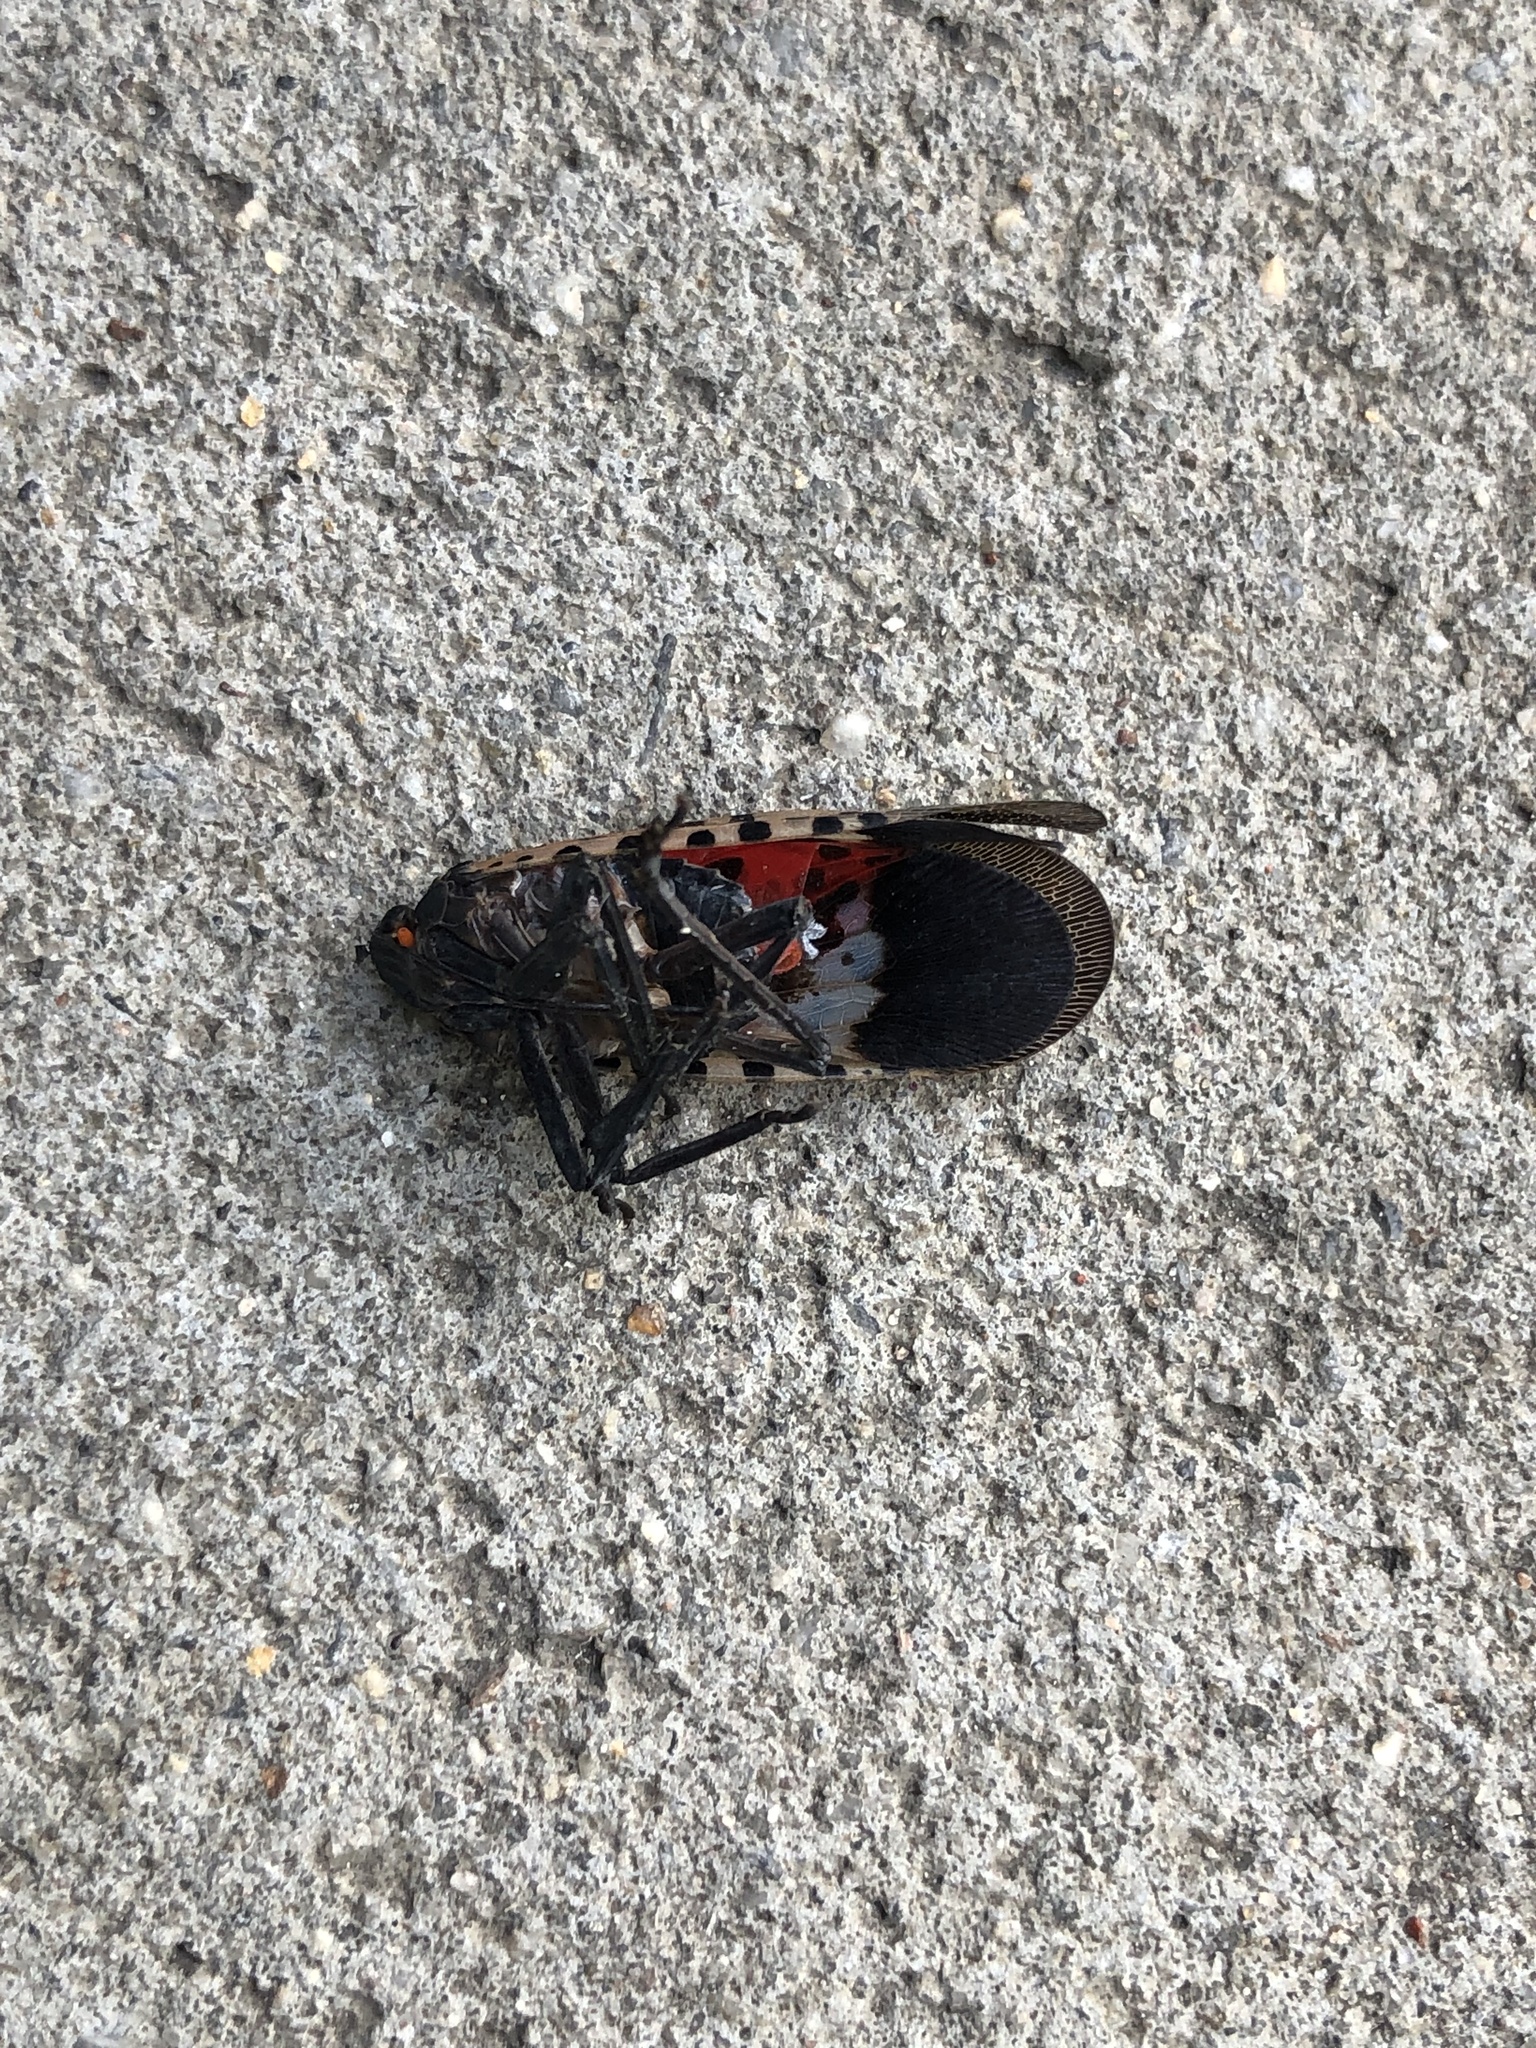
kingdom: Animalia
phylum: Arthropoda
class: Insecta
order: Hemiptera
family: Fulgoridae
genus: Lycorma
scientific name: Lycorma delicatula
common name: Spotted lanternfly
